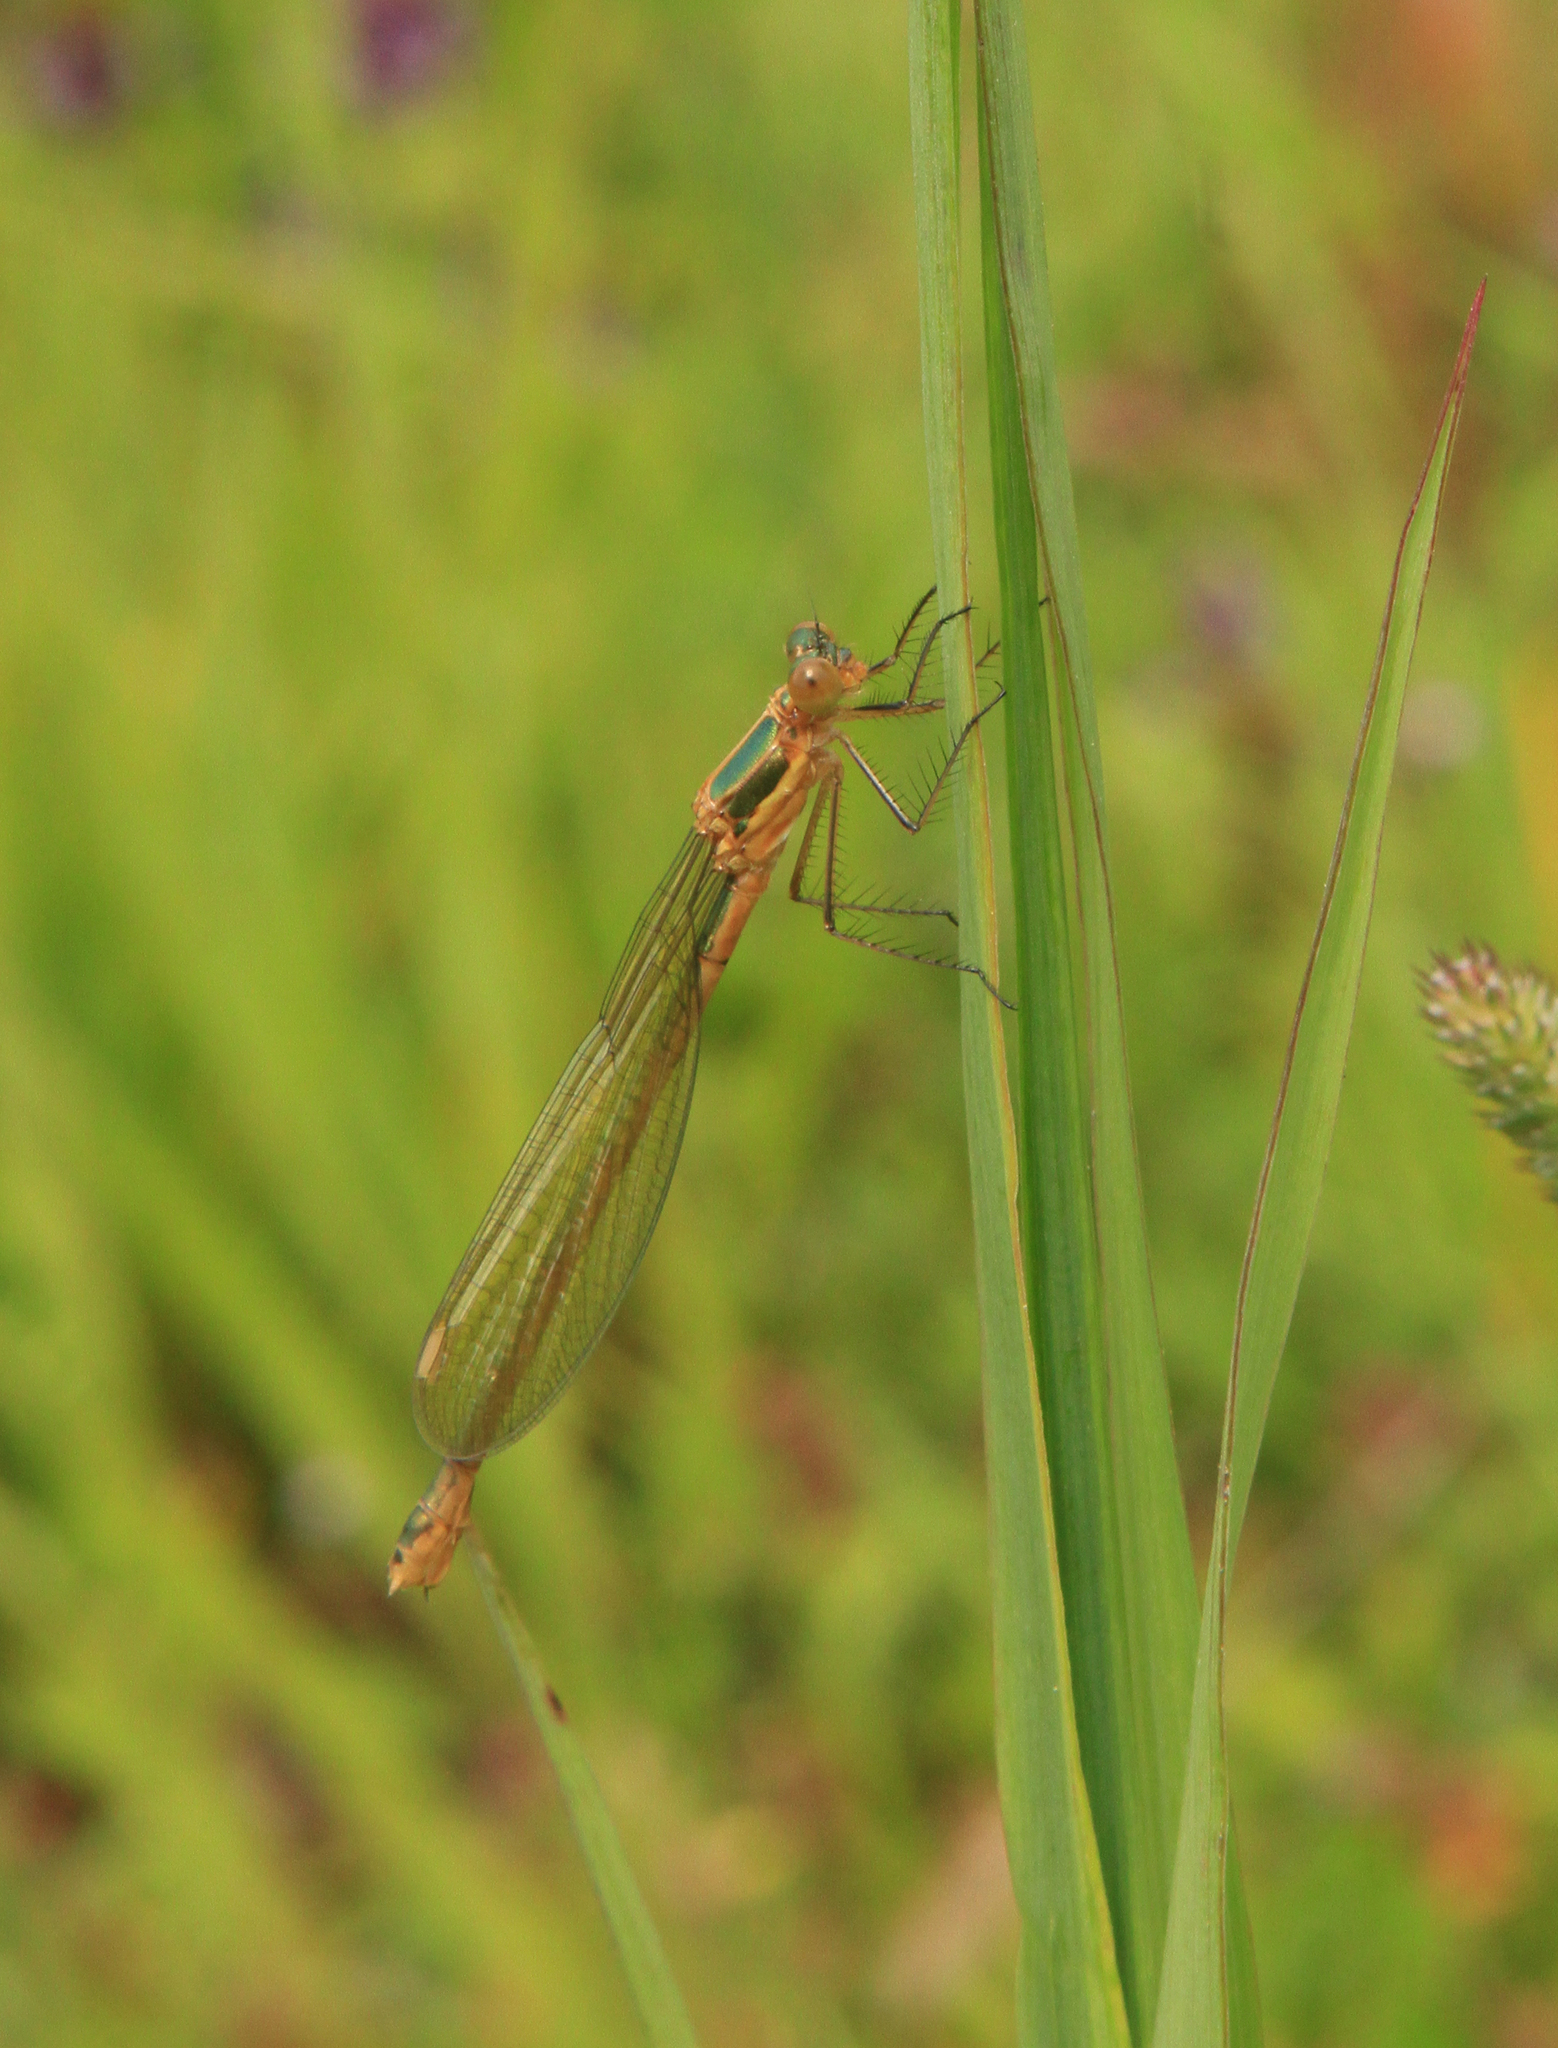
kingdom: Animalia
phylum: Arthropoda
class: Insecta
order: Odonata
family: Lestidae
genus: Lestes
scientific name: Lestes sponsa
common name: Common spreadwing
